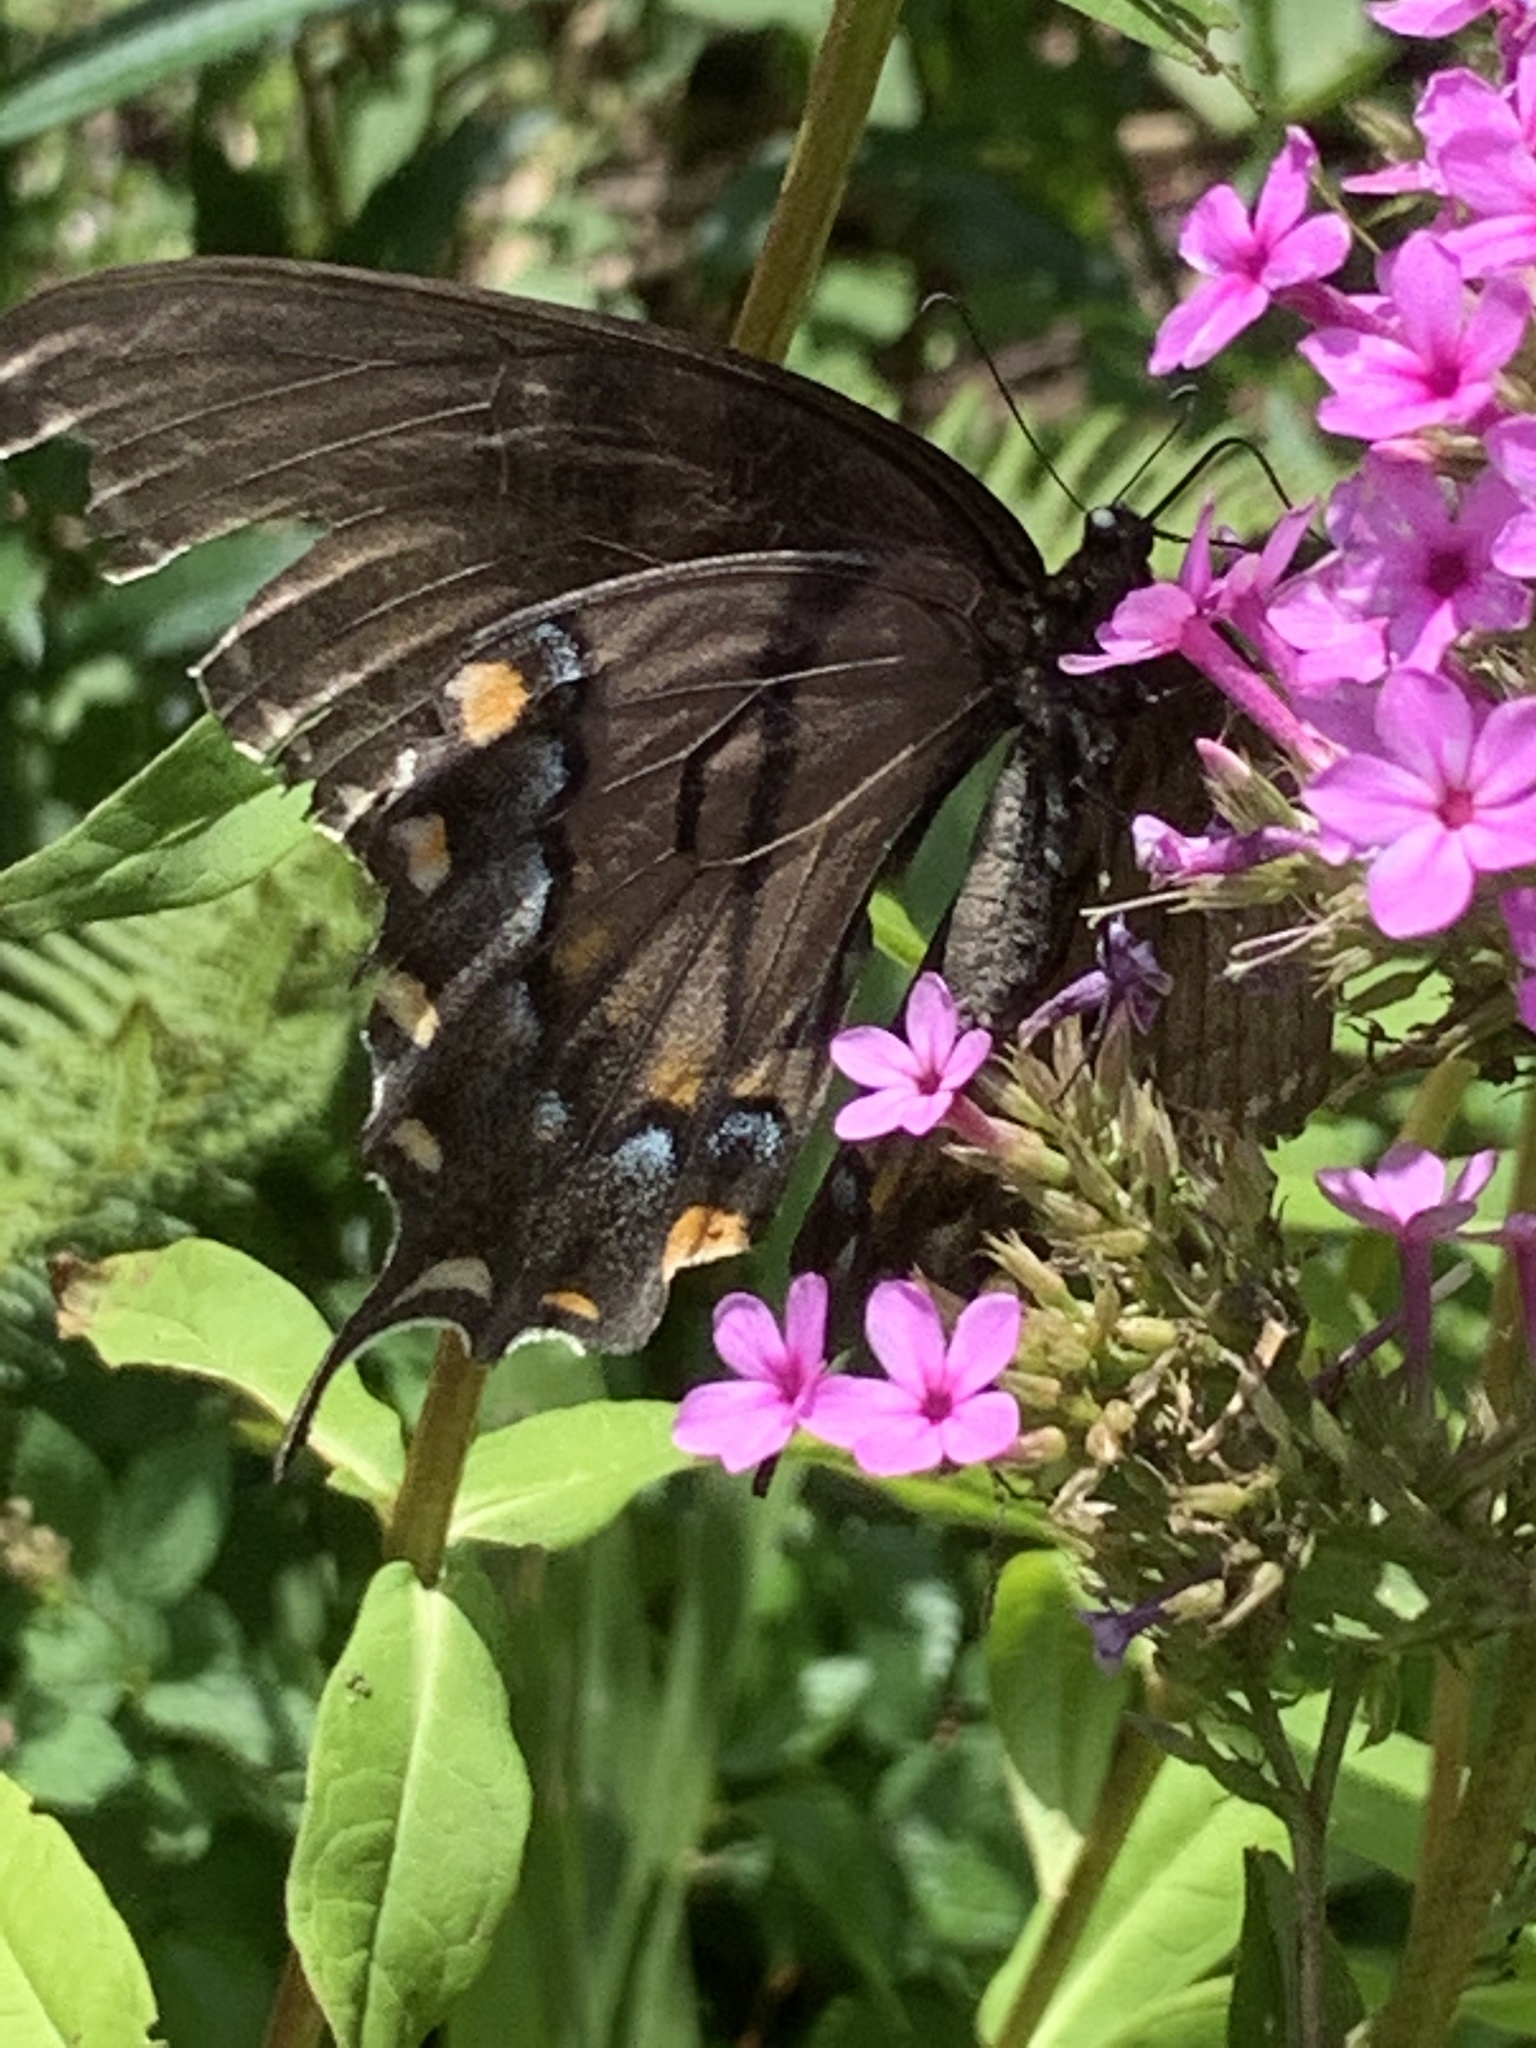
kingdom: Animalia
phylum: Arthropoda
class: Insecta
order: Lepidoptera
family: Papilionidae
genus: Papilio
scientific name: Papilio glaucus
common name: Tiger swallowtail
